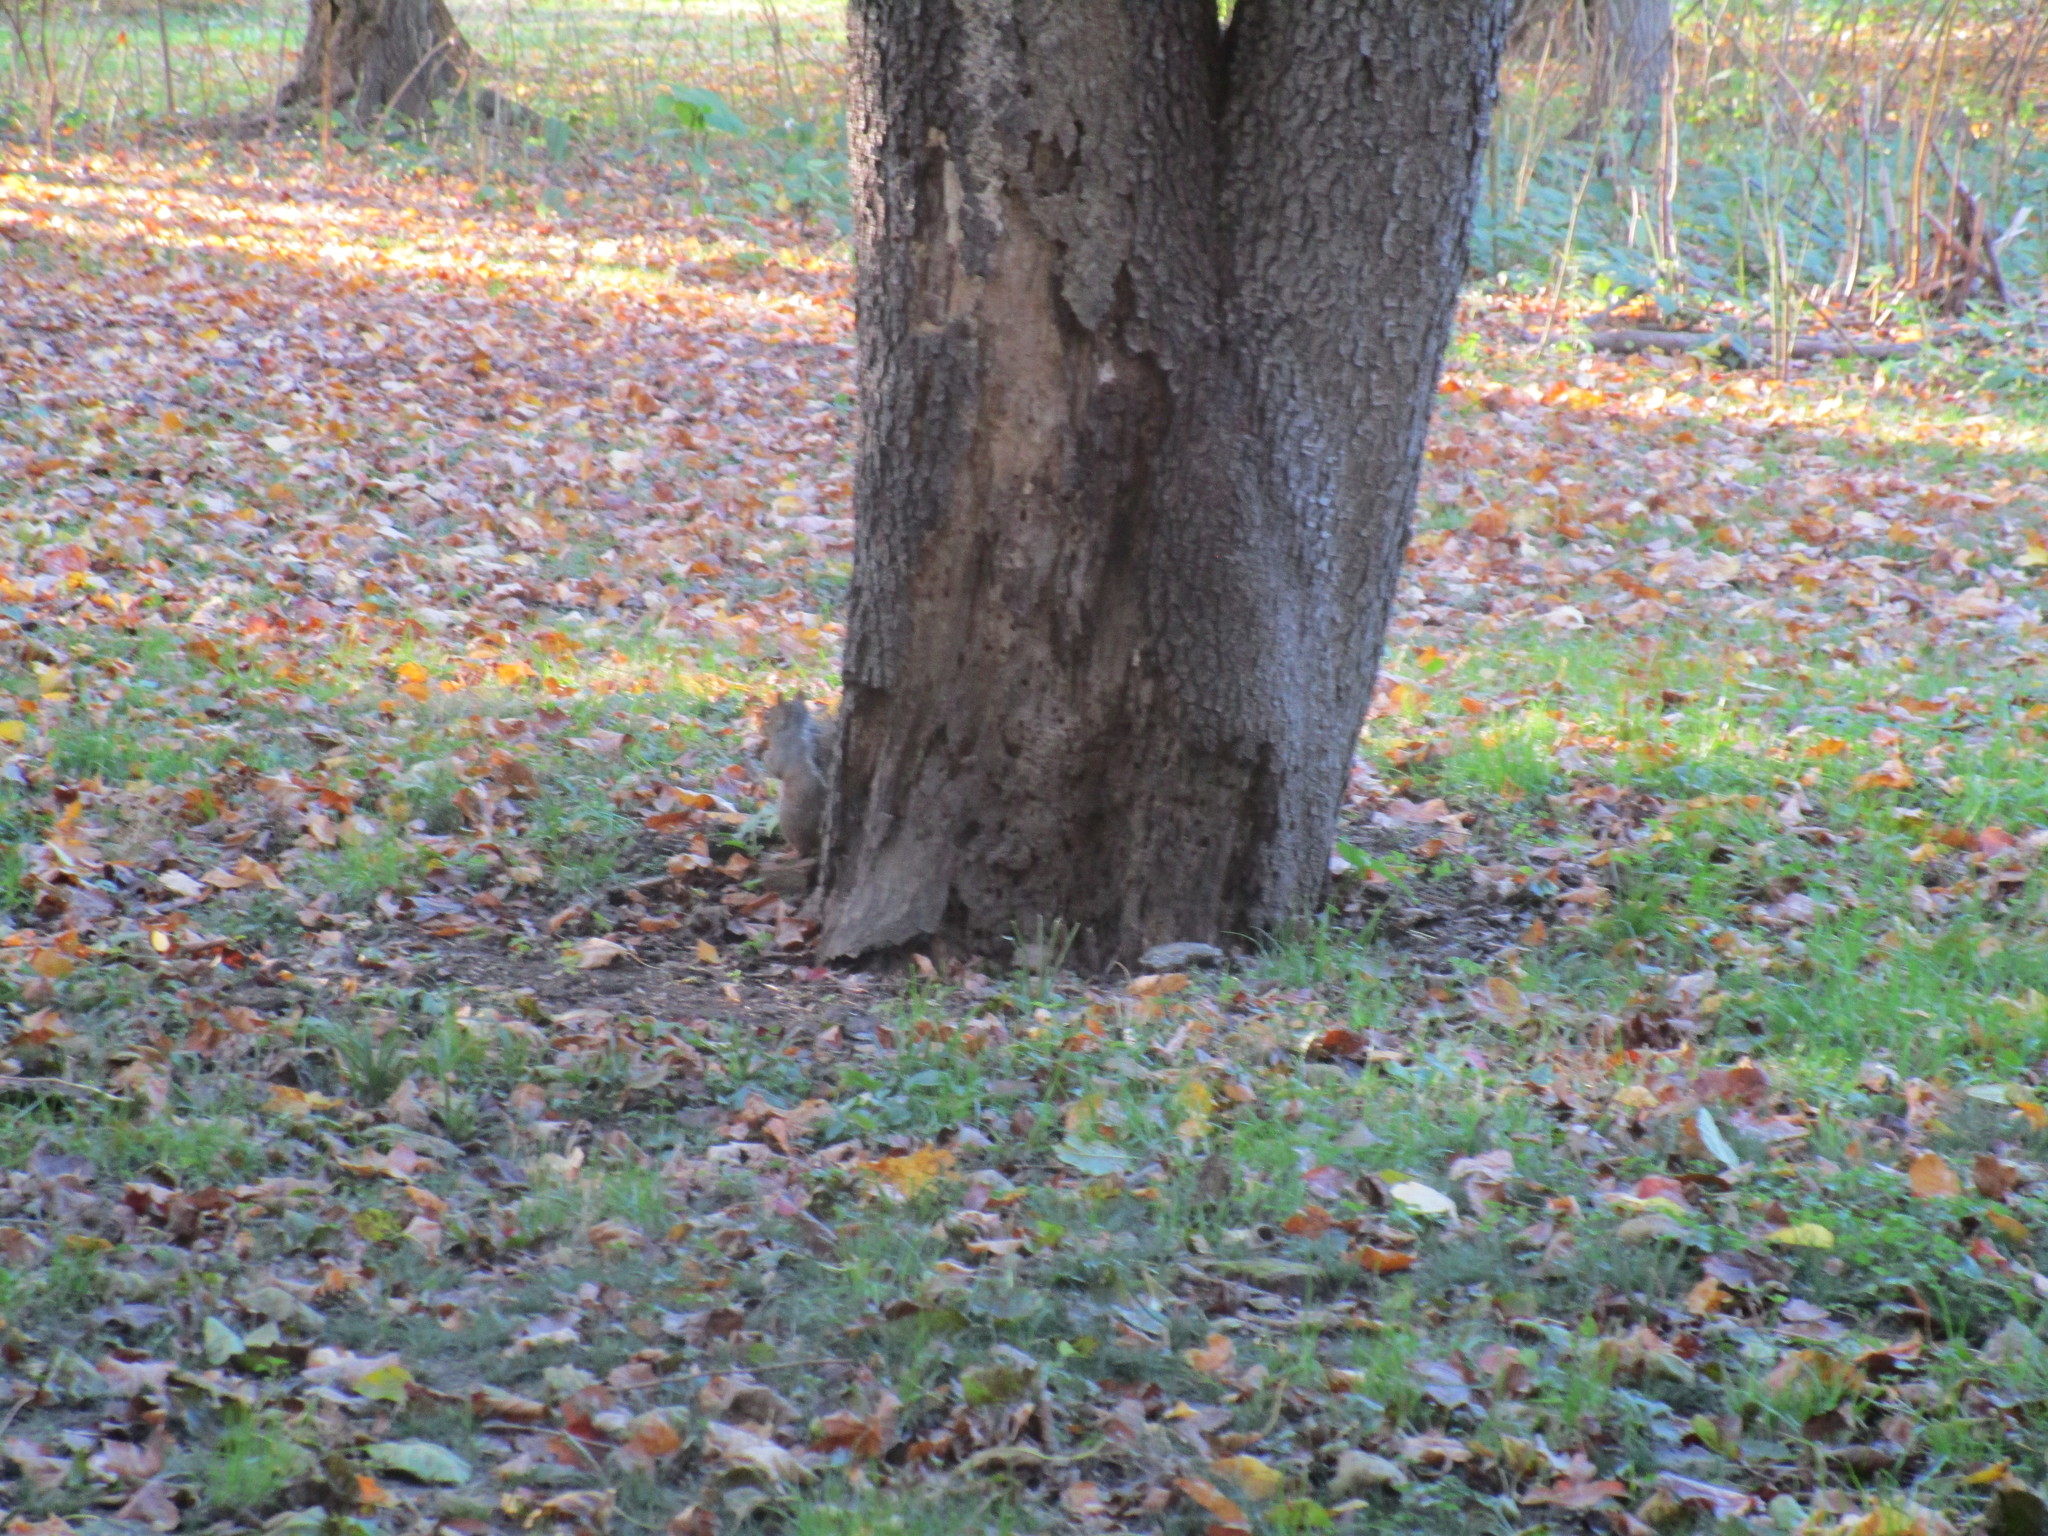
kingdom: Animalia
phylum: Chordata
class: Mammalia
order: Rodentia
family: Sciuridae
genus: Sciurus
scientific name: Sciurus carolinensis
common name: Eastern gray squirrel
